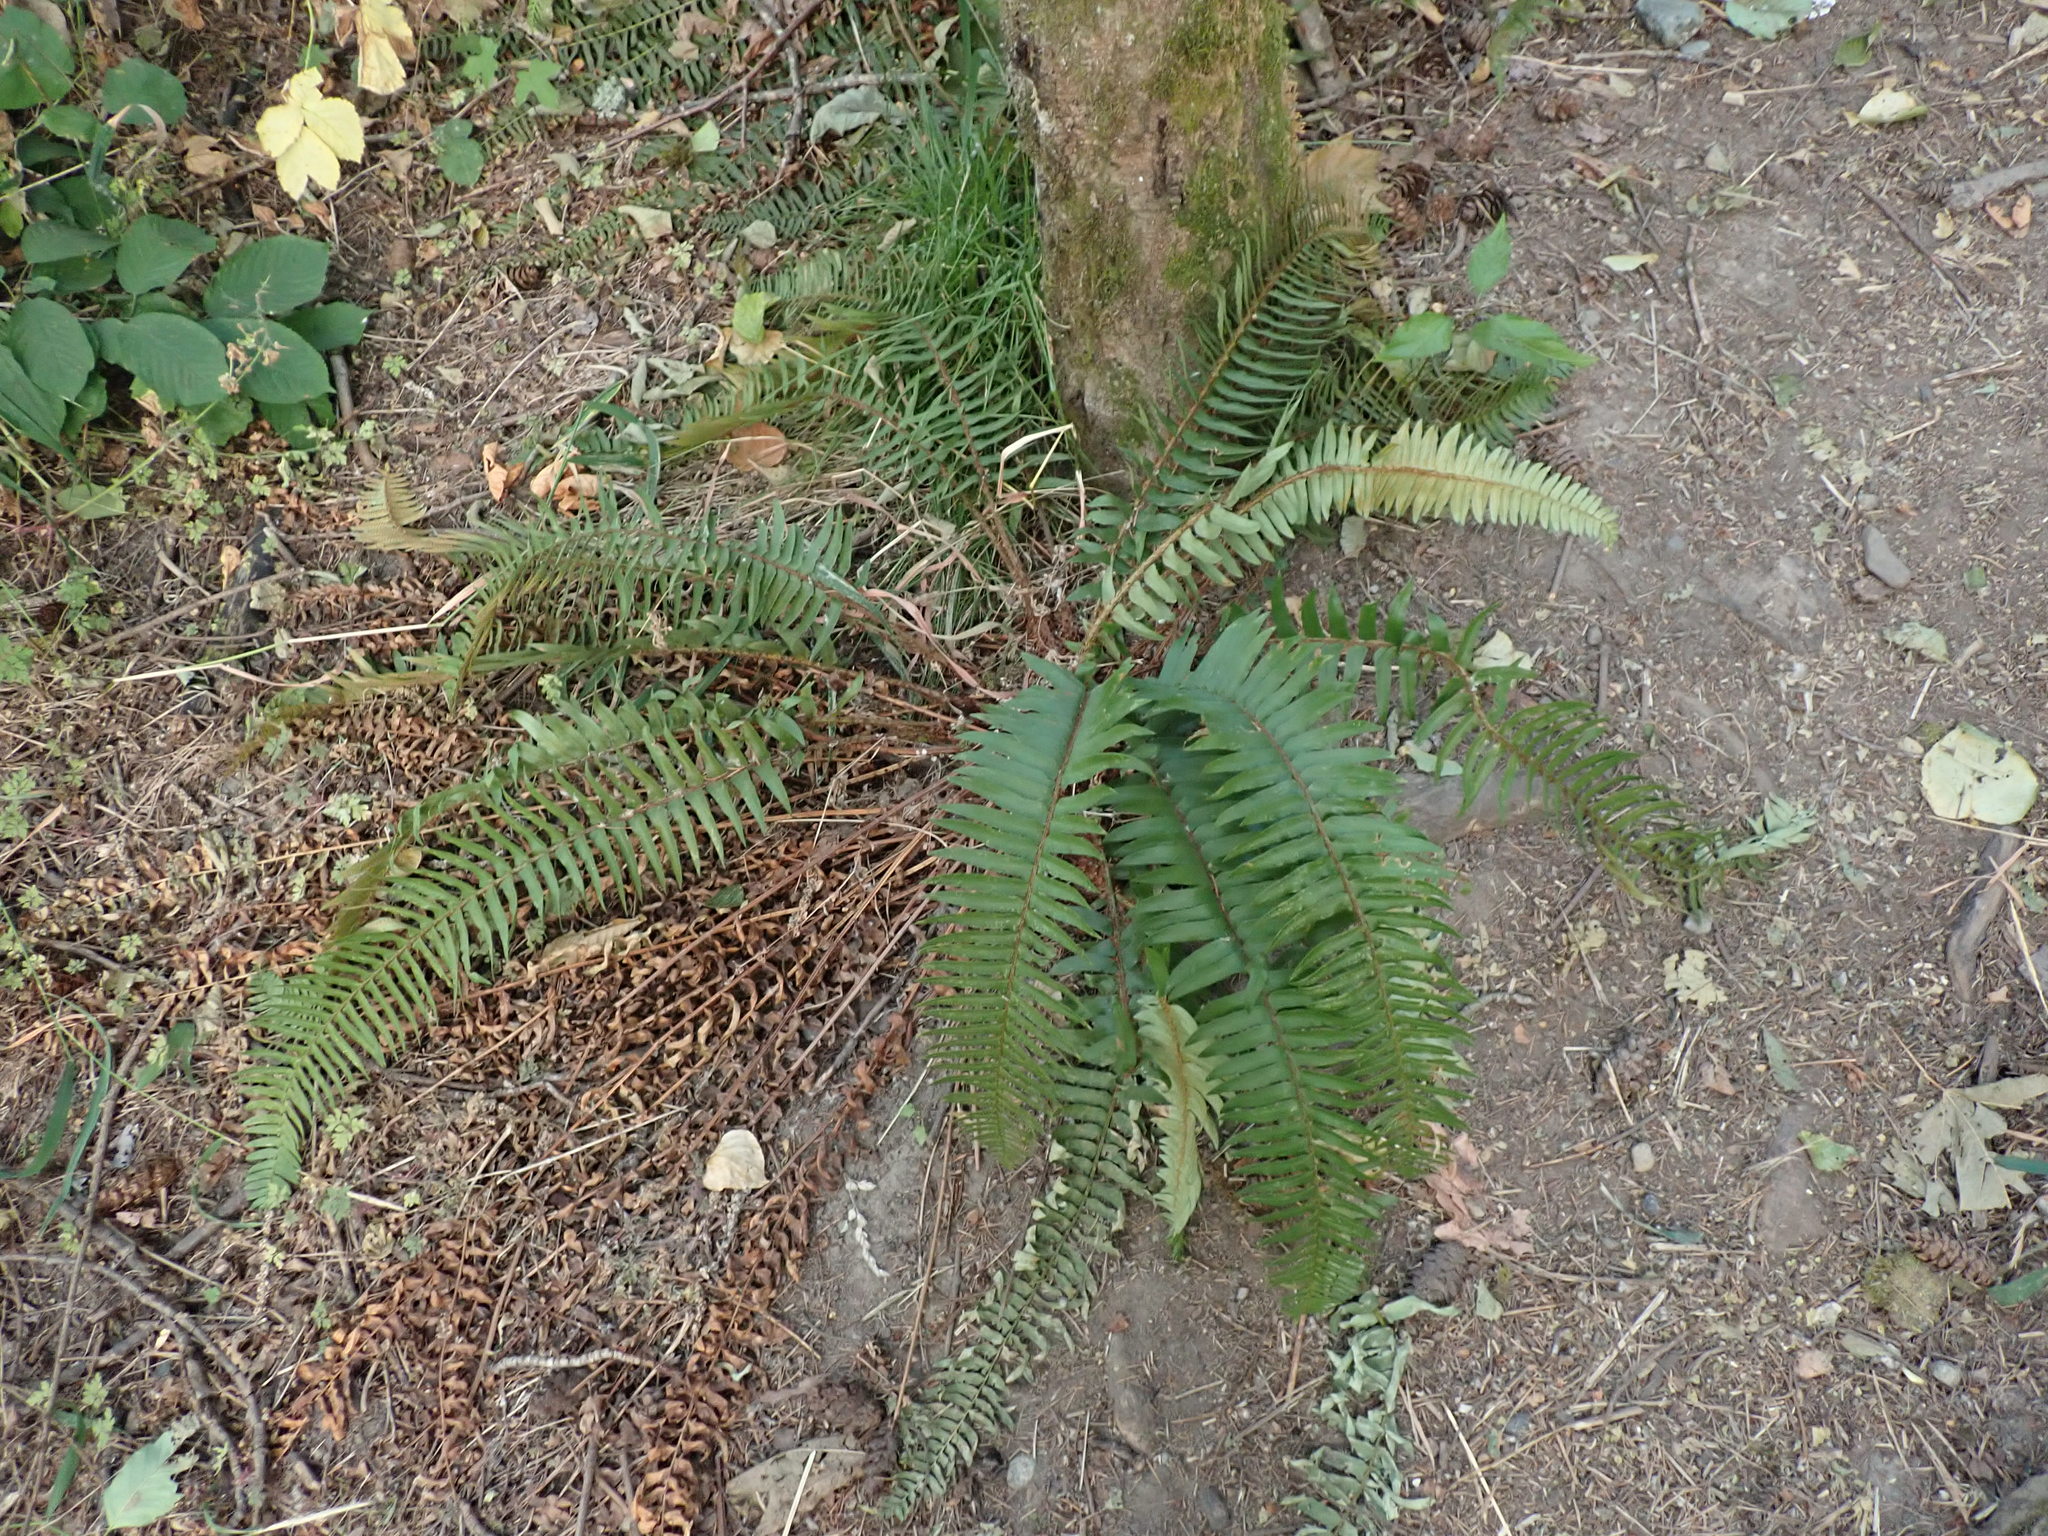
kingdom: Plantae
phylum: Tracheophyta
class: Polypodiopsida
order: Polypodiales
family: Dryopteridaceae
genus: Polystichum
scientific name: Polystichum munitum
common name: Western sword-fern
